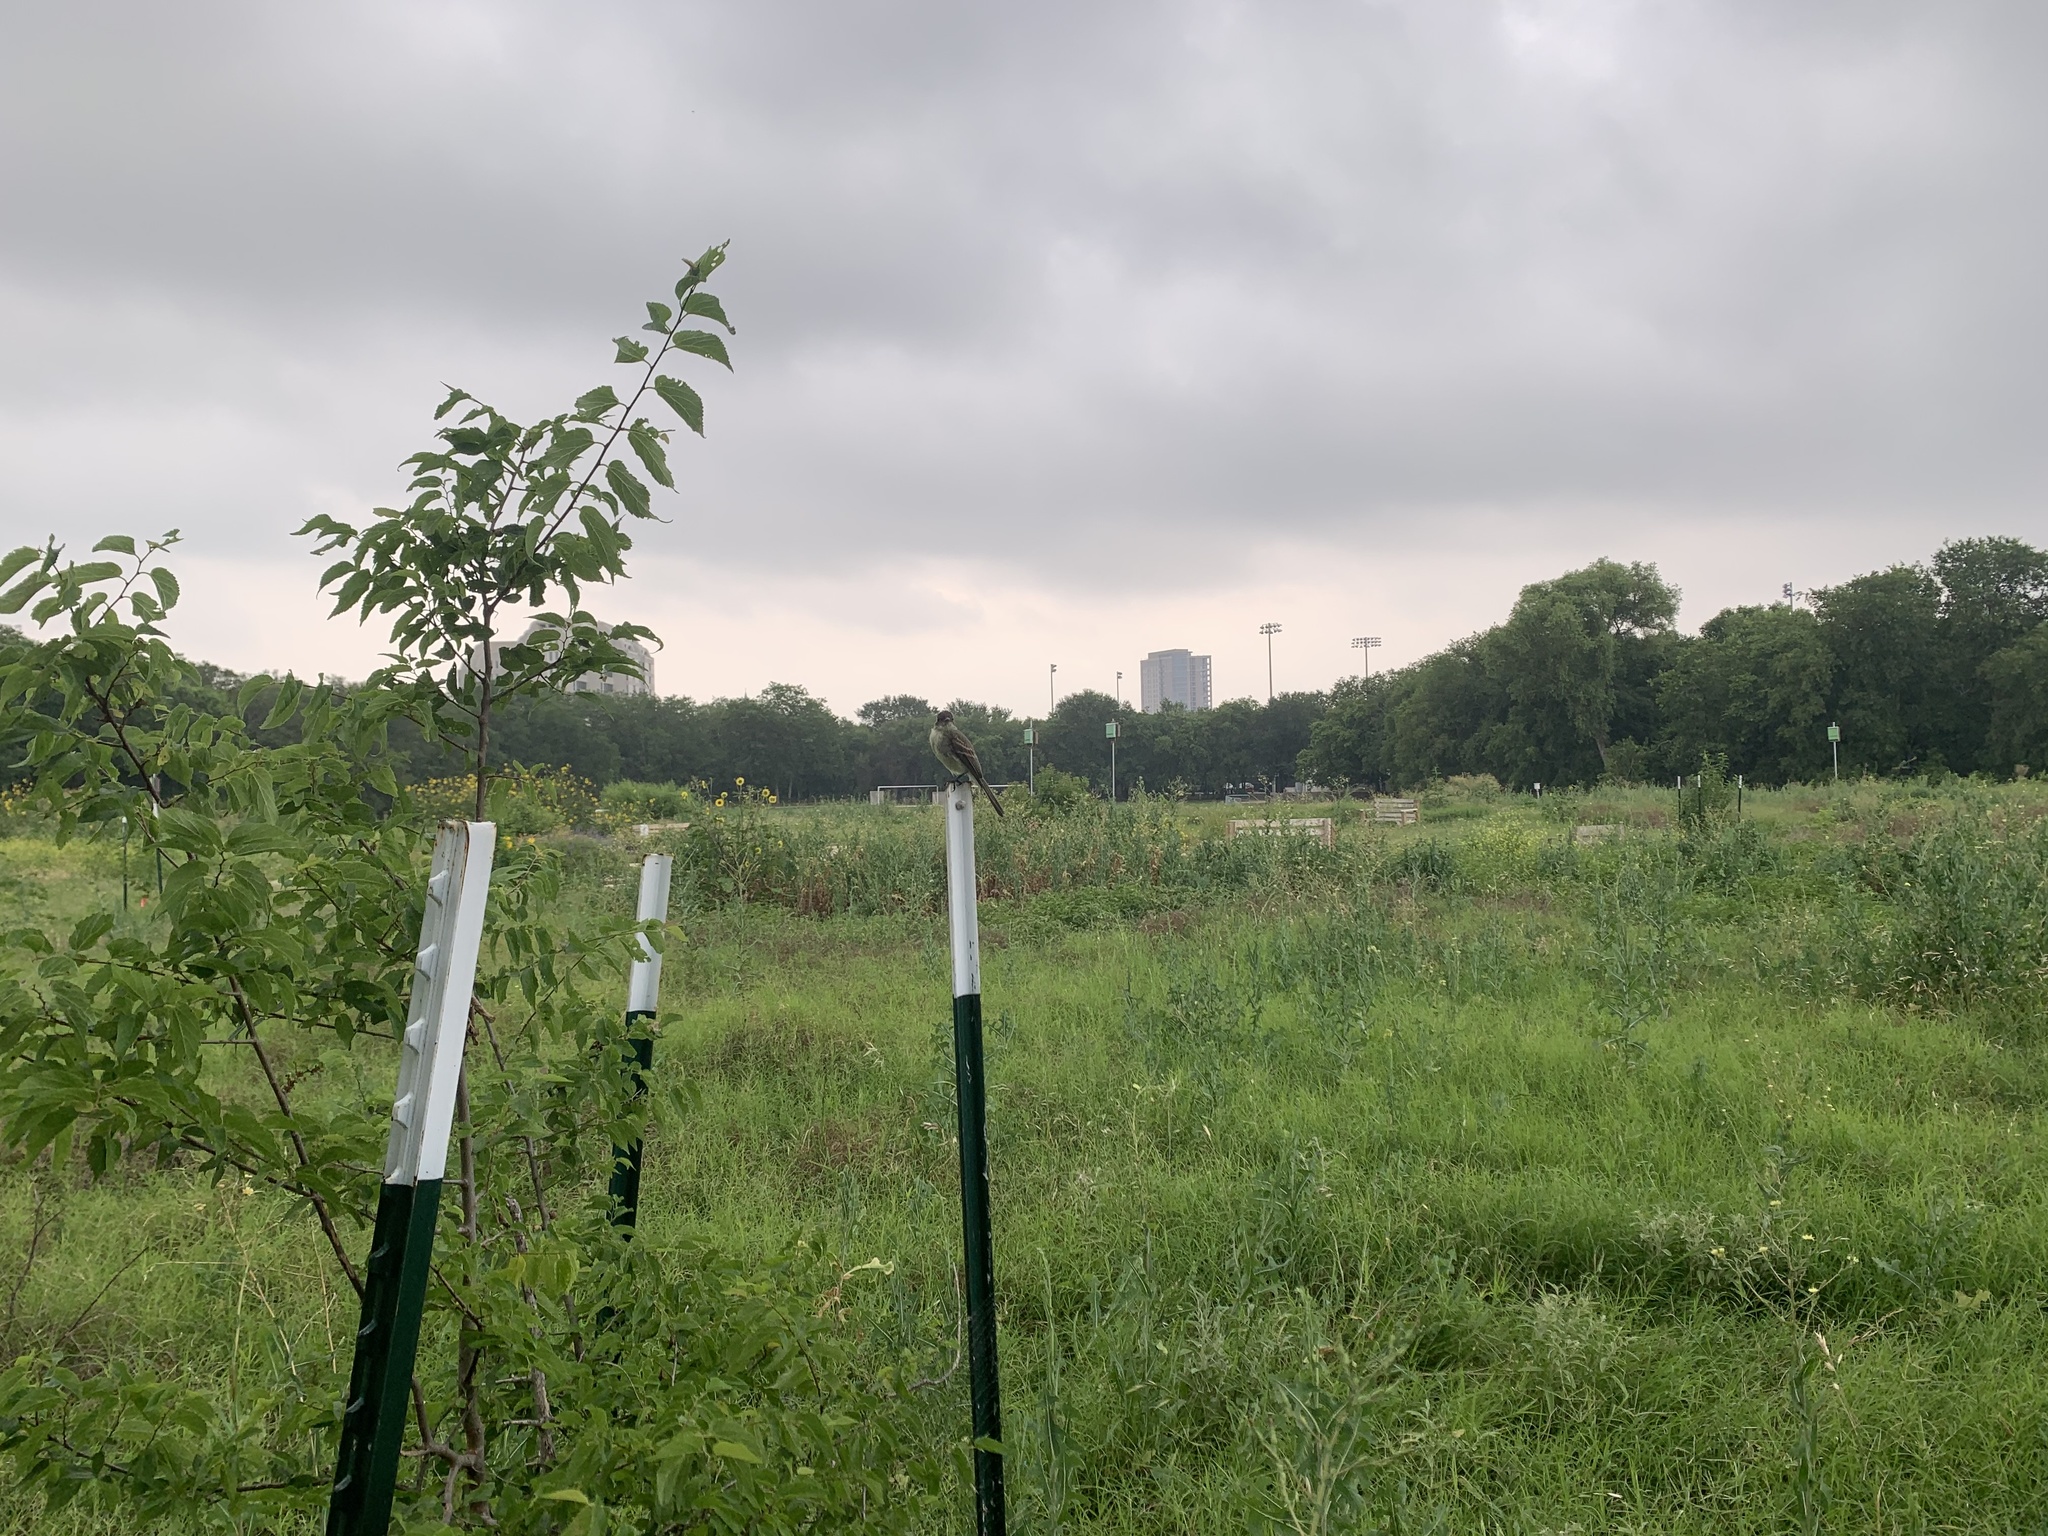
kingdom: Animalia
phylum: Chordata
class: Aves
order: Passeriformes
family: Tyrannidae
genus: Sayornis
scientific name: Sayornis phoebe
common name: Eastern phoebe
